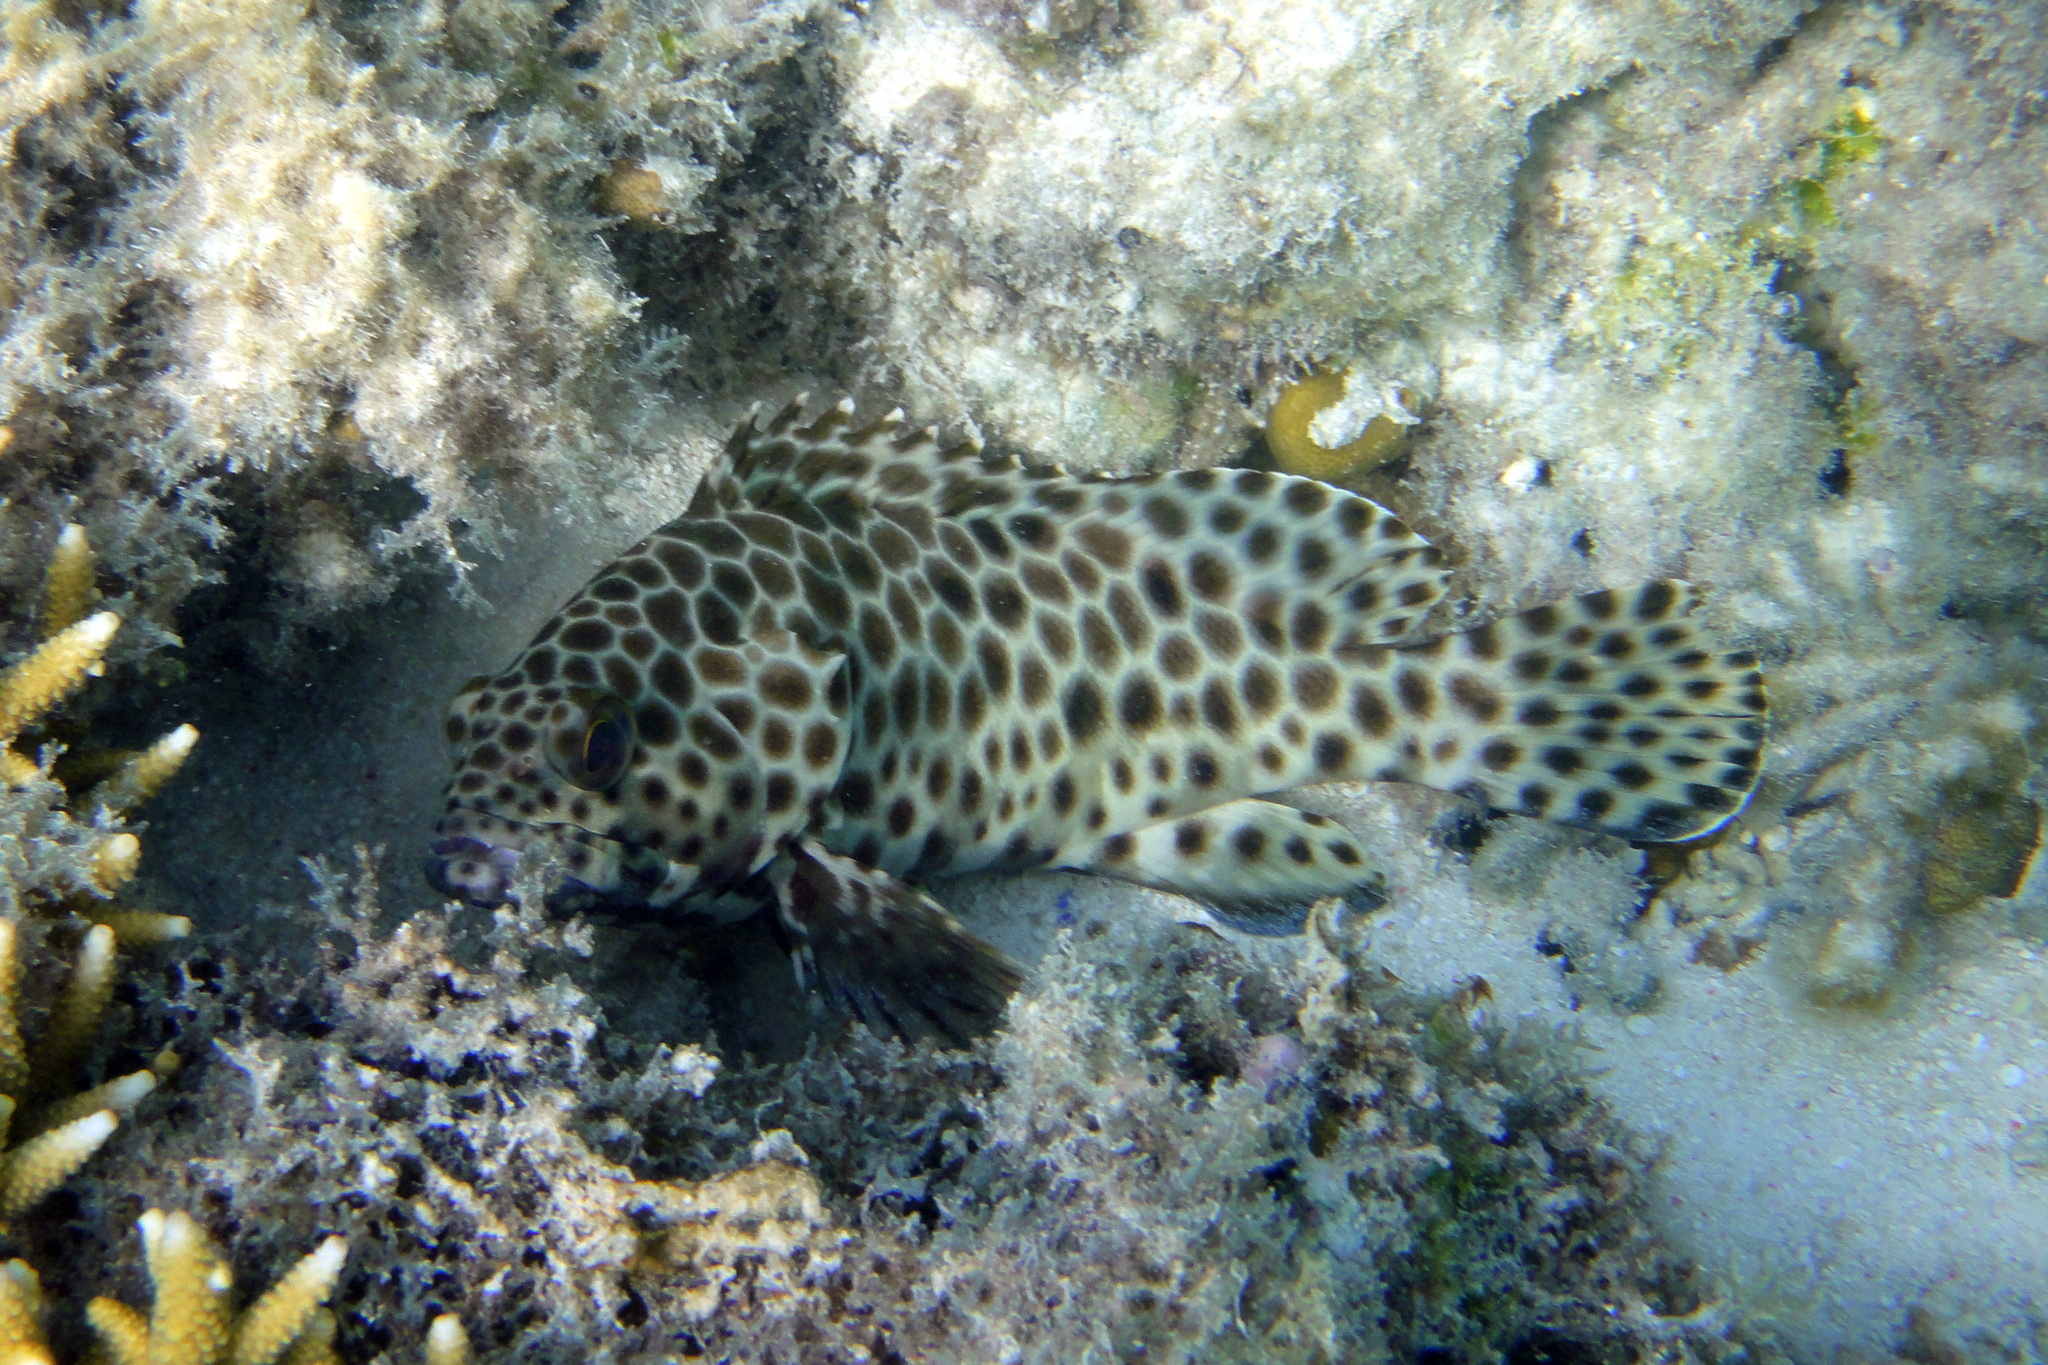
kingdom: Animalia
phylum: Chordata
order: Perciformes
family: Serranidae
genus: Epinephelus
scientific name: Epinephelus quoyanus
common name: Longfin grouper
